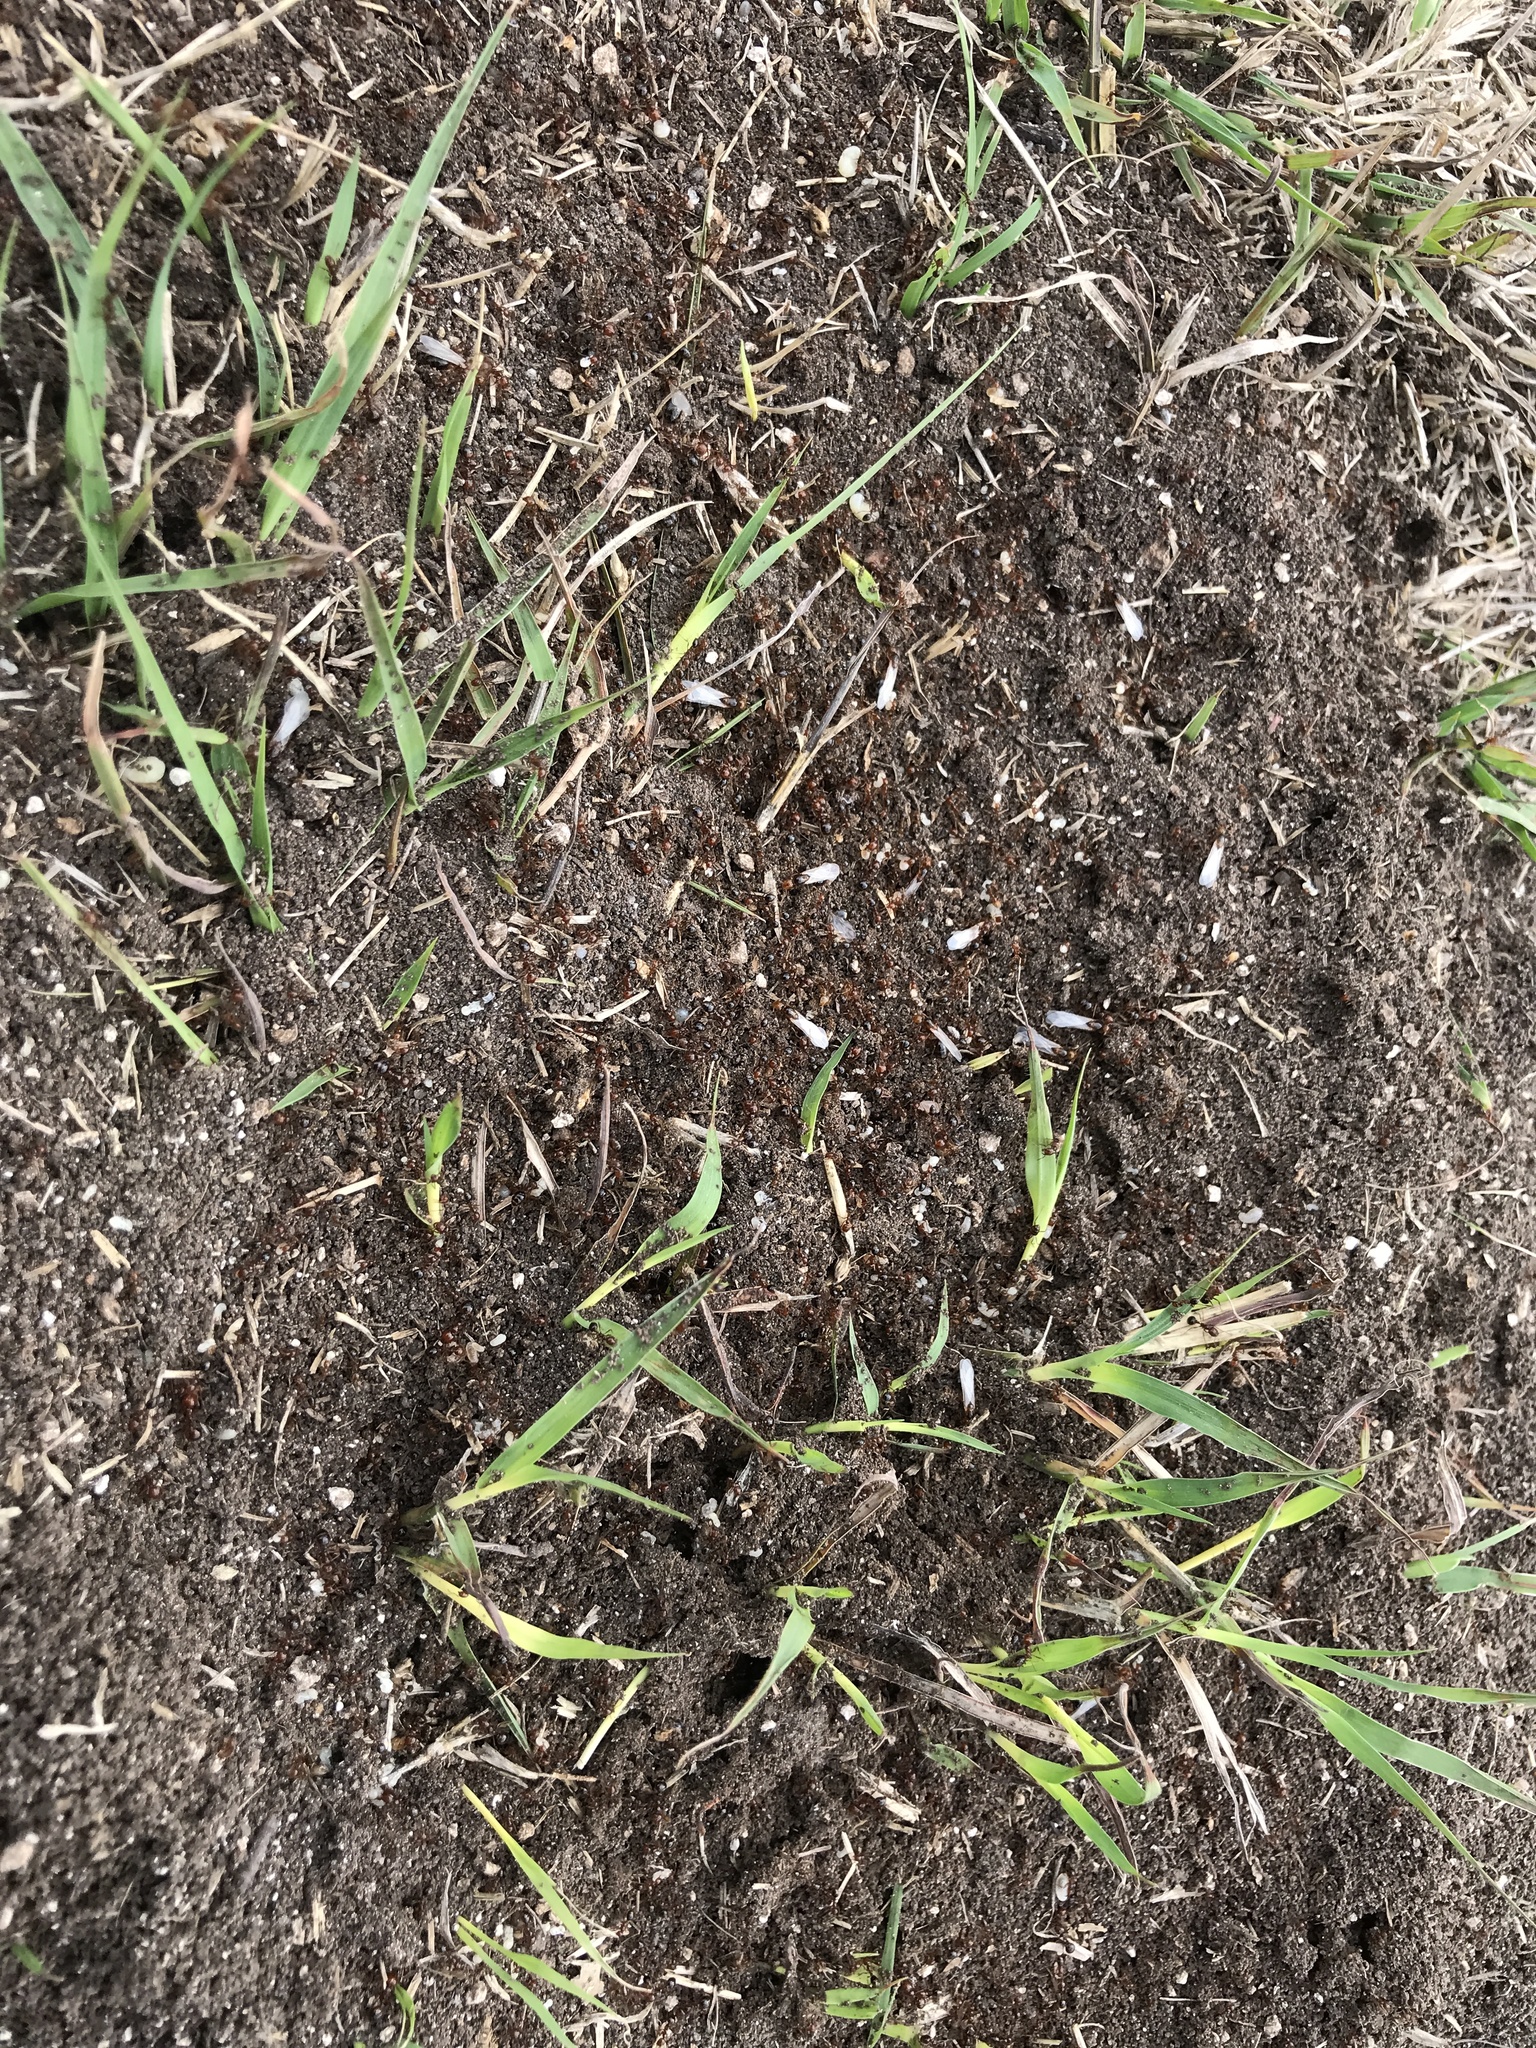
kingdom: Animalia
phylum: Arthropoda
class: Insecta
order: Hymenoptera
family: Formicidae
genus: Solenopsis
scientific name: Solenopsis invicta
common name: Red imported fire ant
